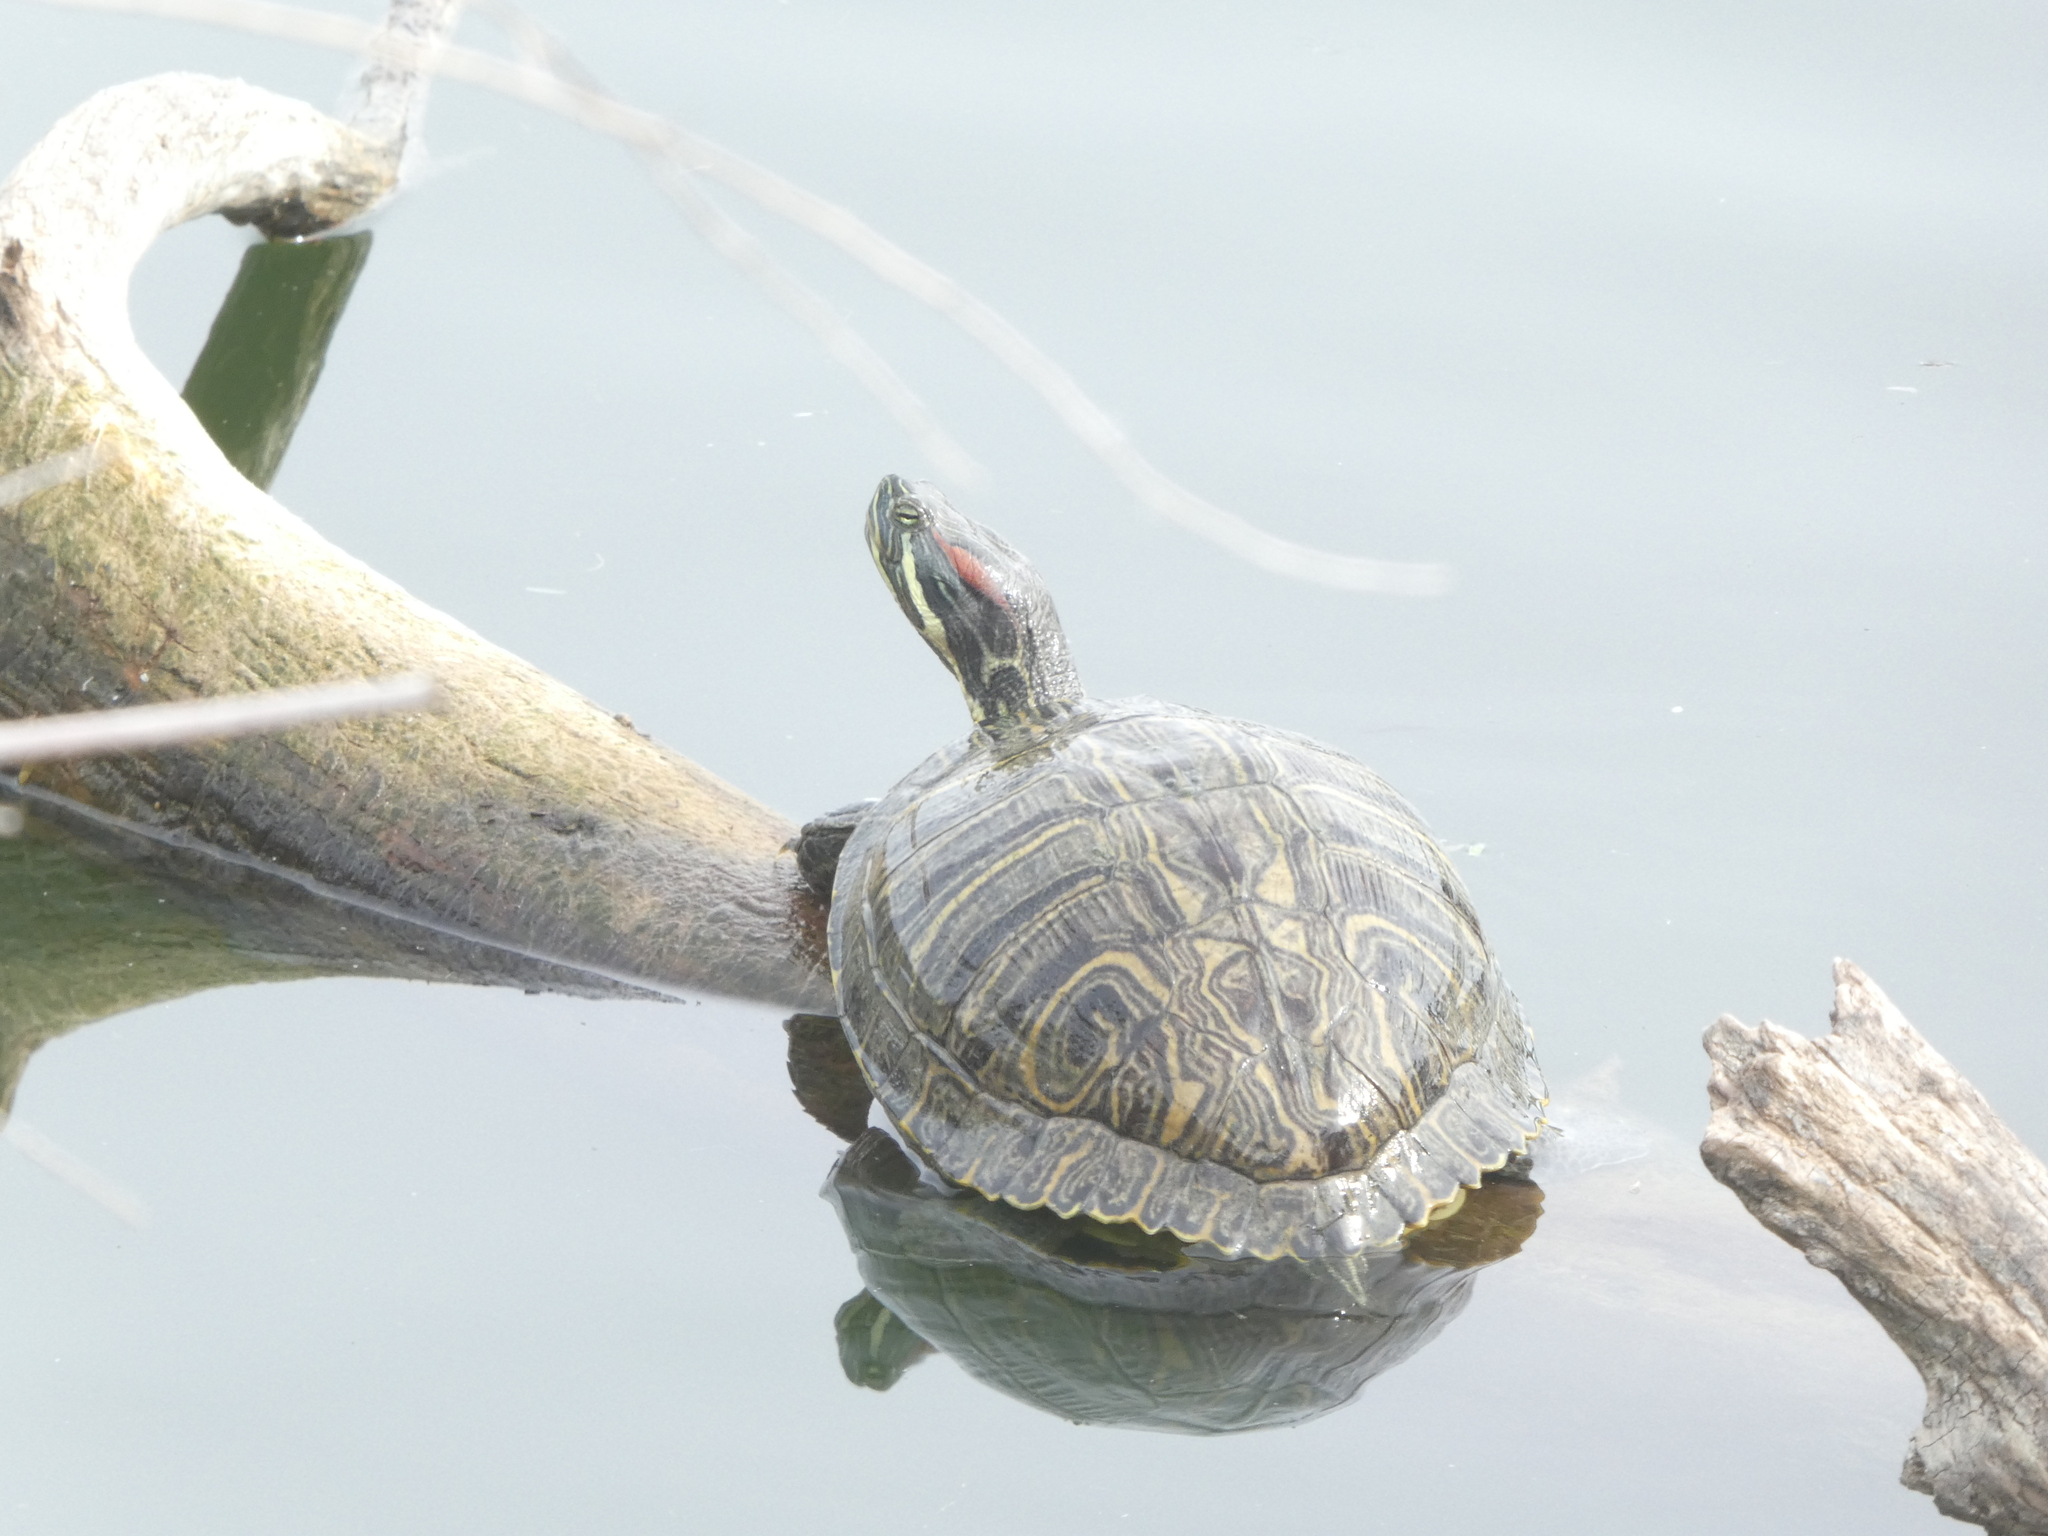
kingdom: Animalia
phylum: Chordata
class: Testudines
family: Emydidae
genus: Trachemys
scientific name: Trachemys scripta
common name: Slider
